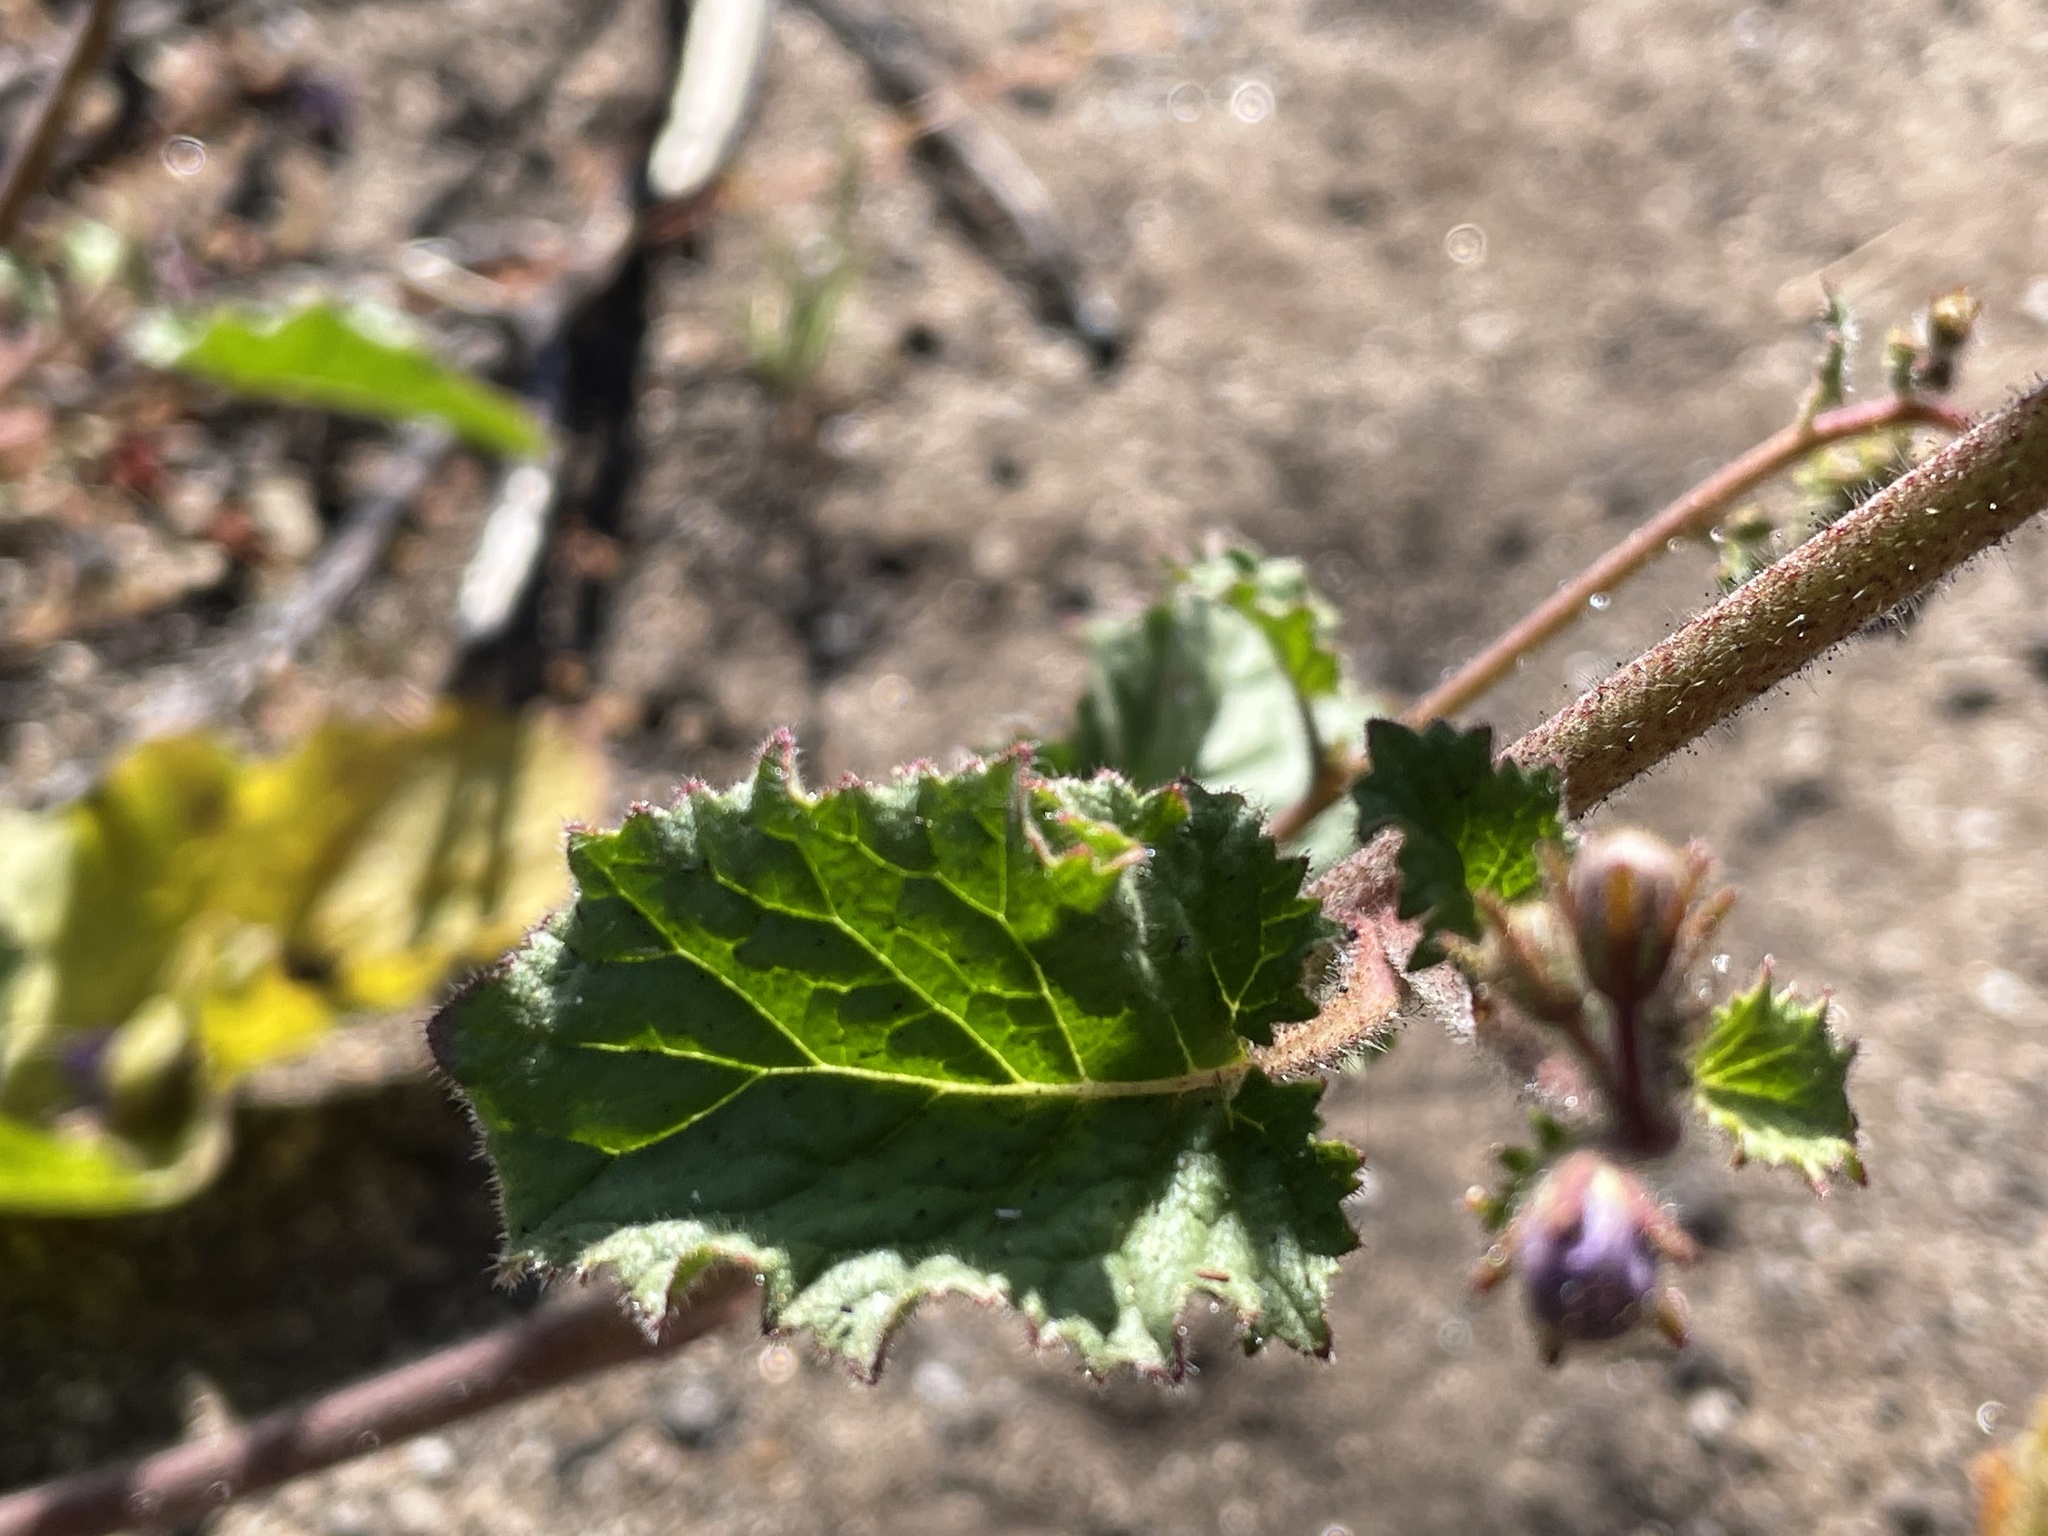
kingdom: Plantae
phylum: Tracheophyta
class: Magnoliopsida
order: Boraginales
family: Hydrophyllaceae
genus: Phacelia
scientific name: Phacelia parryi
